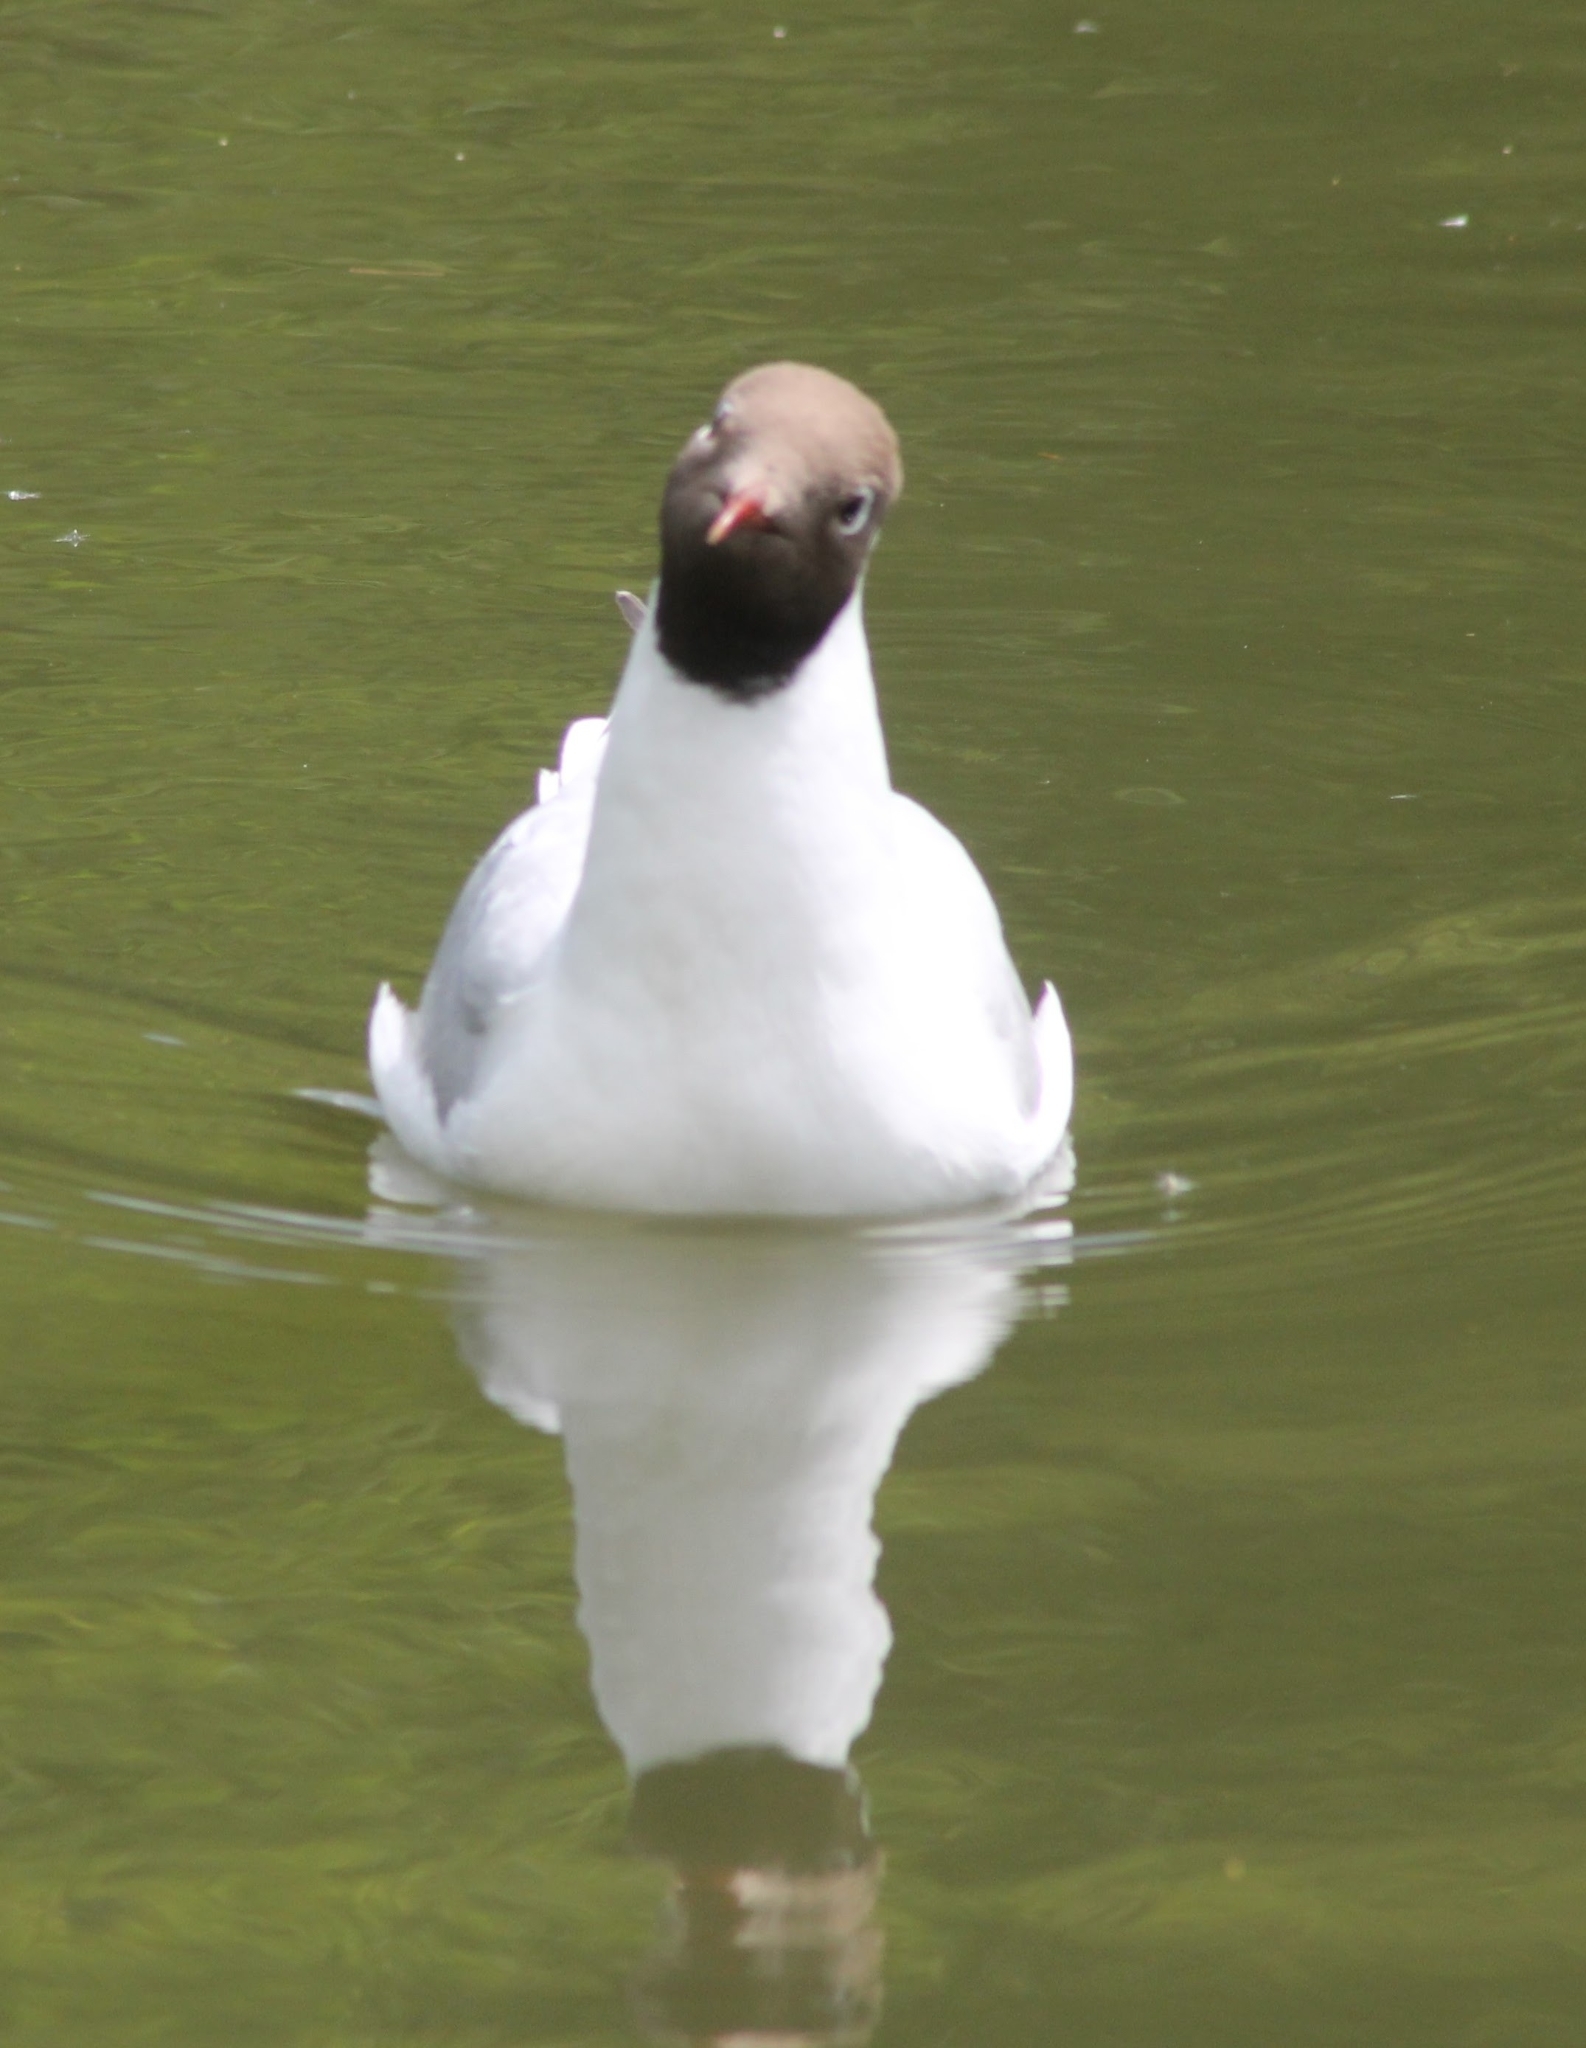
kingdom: Animalia
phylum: Chordata
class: Aves
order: Charadriiformes
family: Laridae
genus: Chroicocephalus
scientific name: Chroicocephalus ridibundus
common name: Black-headed gull
